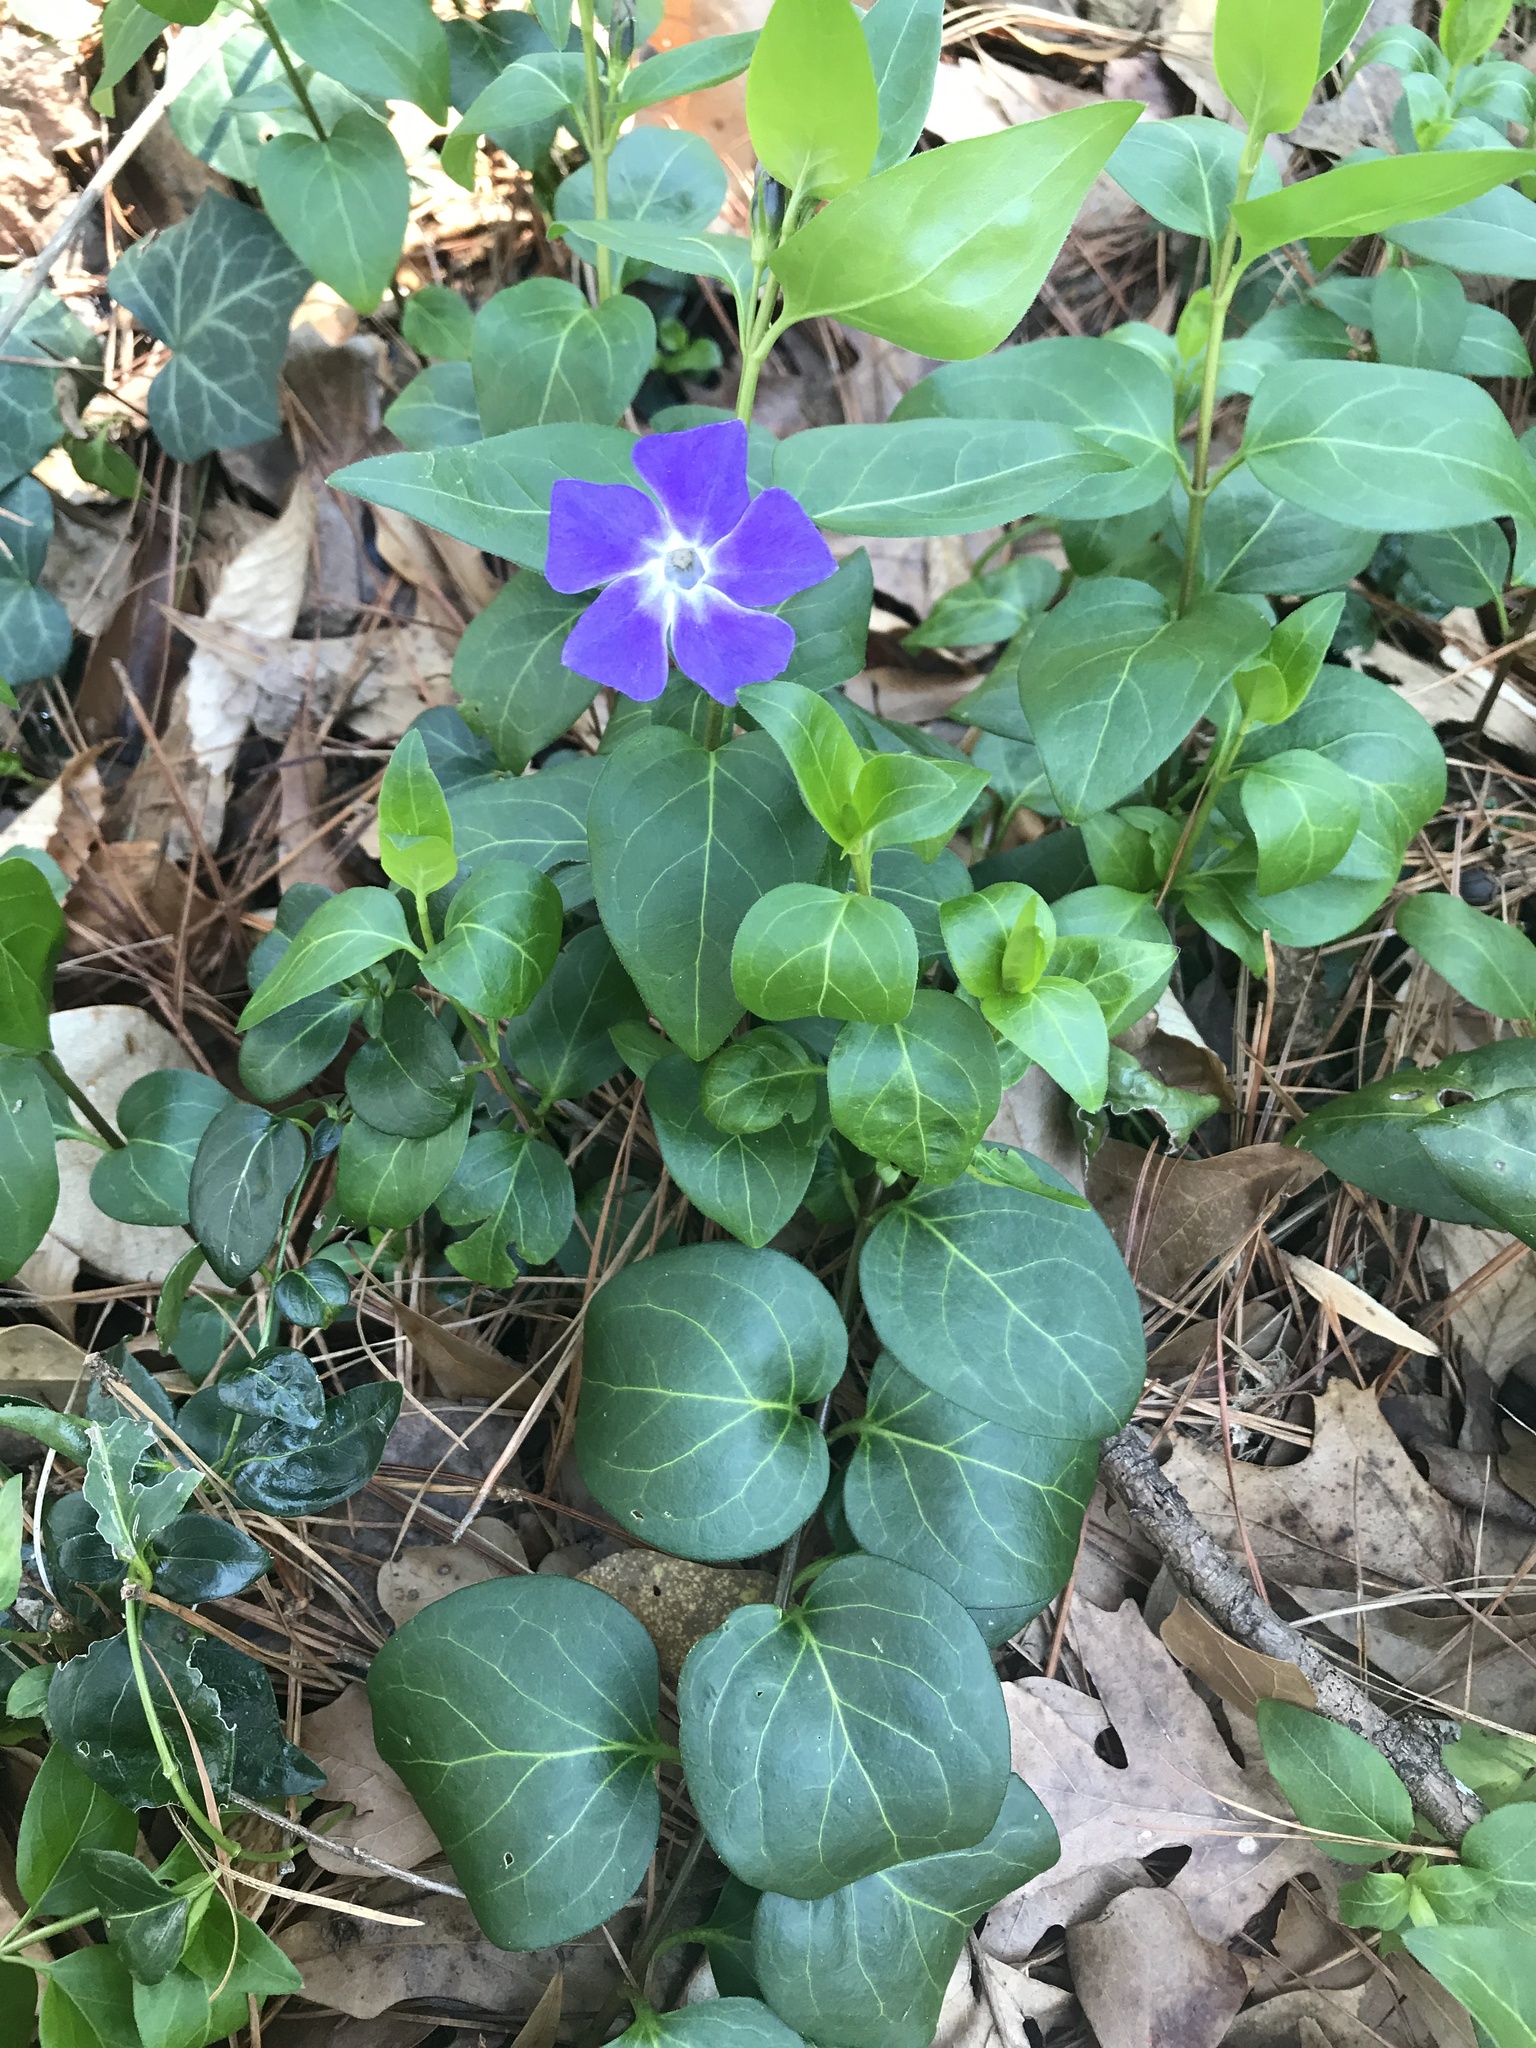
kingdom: Plantae
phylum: Tracheophyta
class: Magnoliopsida
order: Gentianales
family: Apocynaceae
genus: Vinca
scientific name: Vinca major
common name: Greater periwinkle
